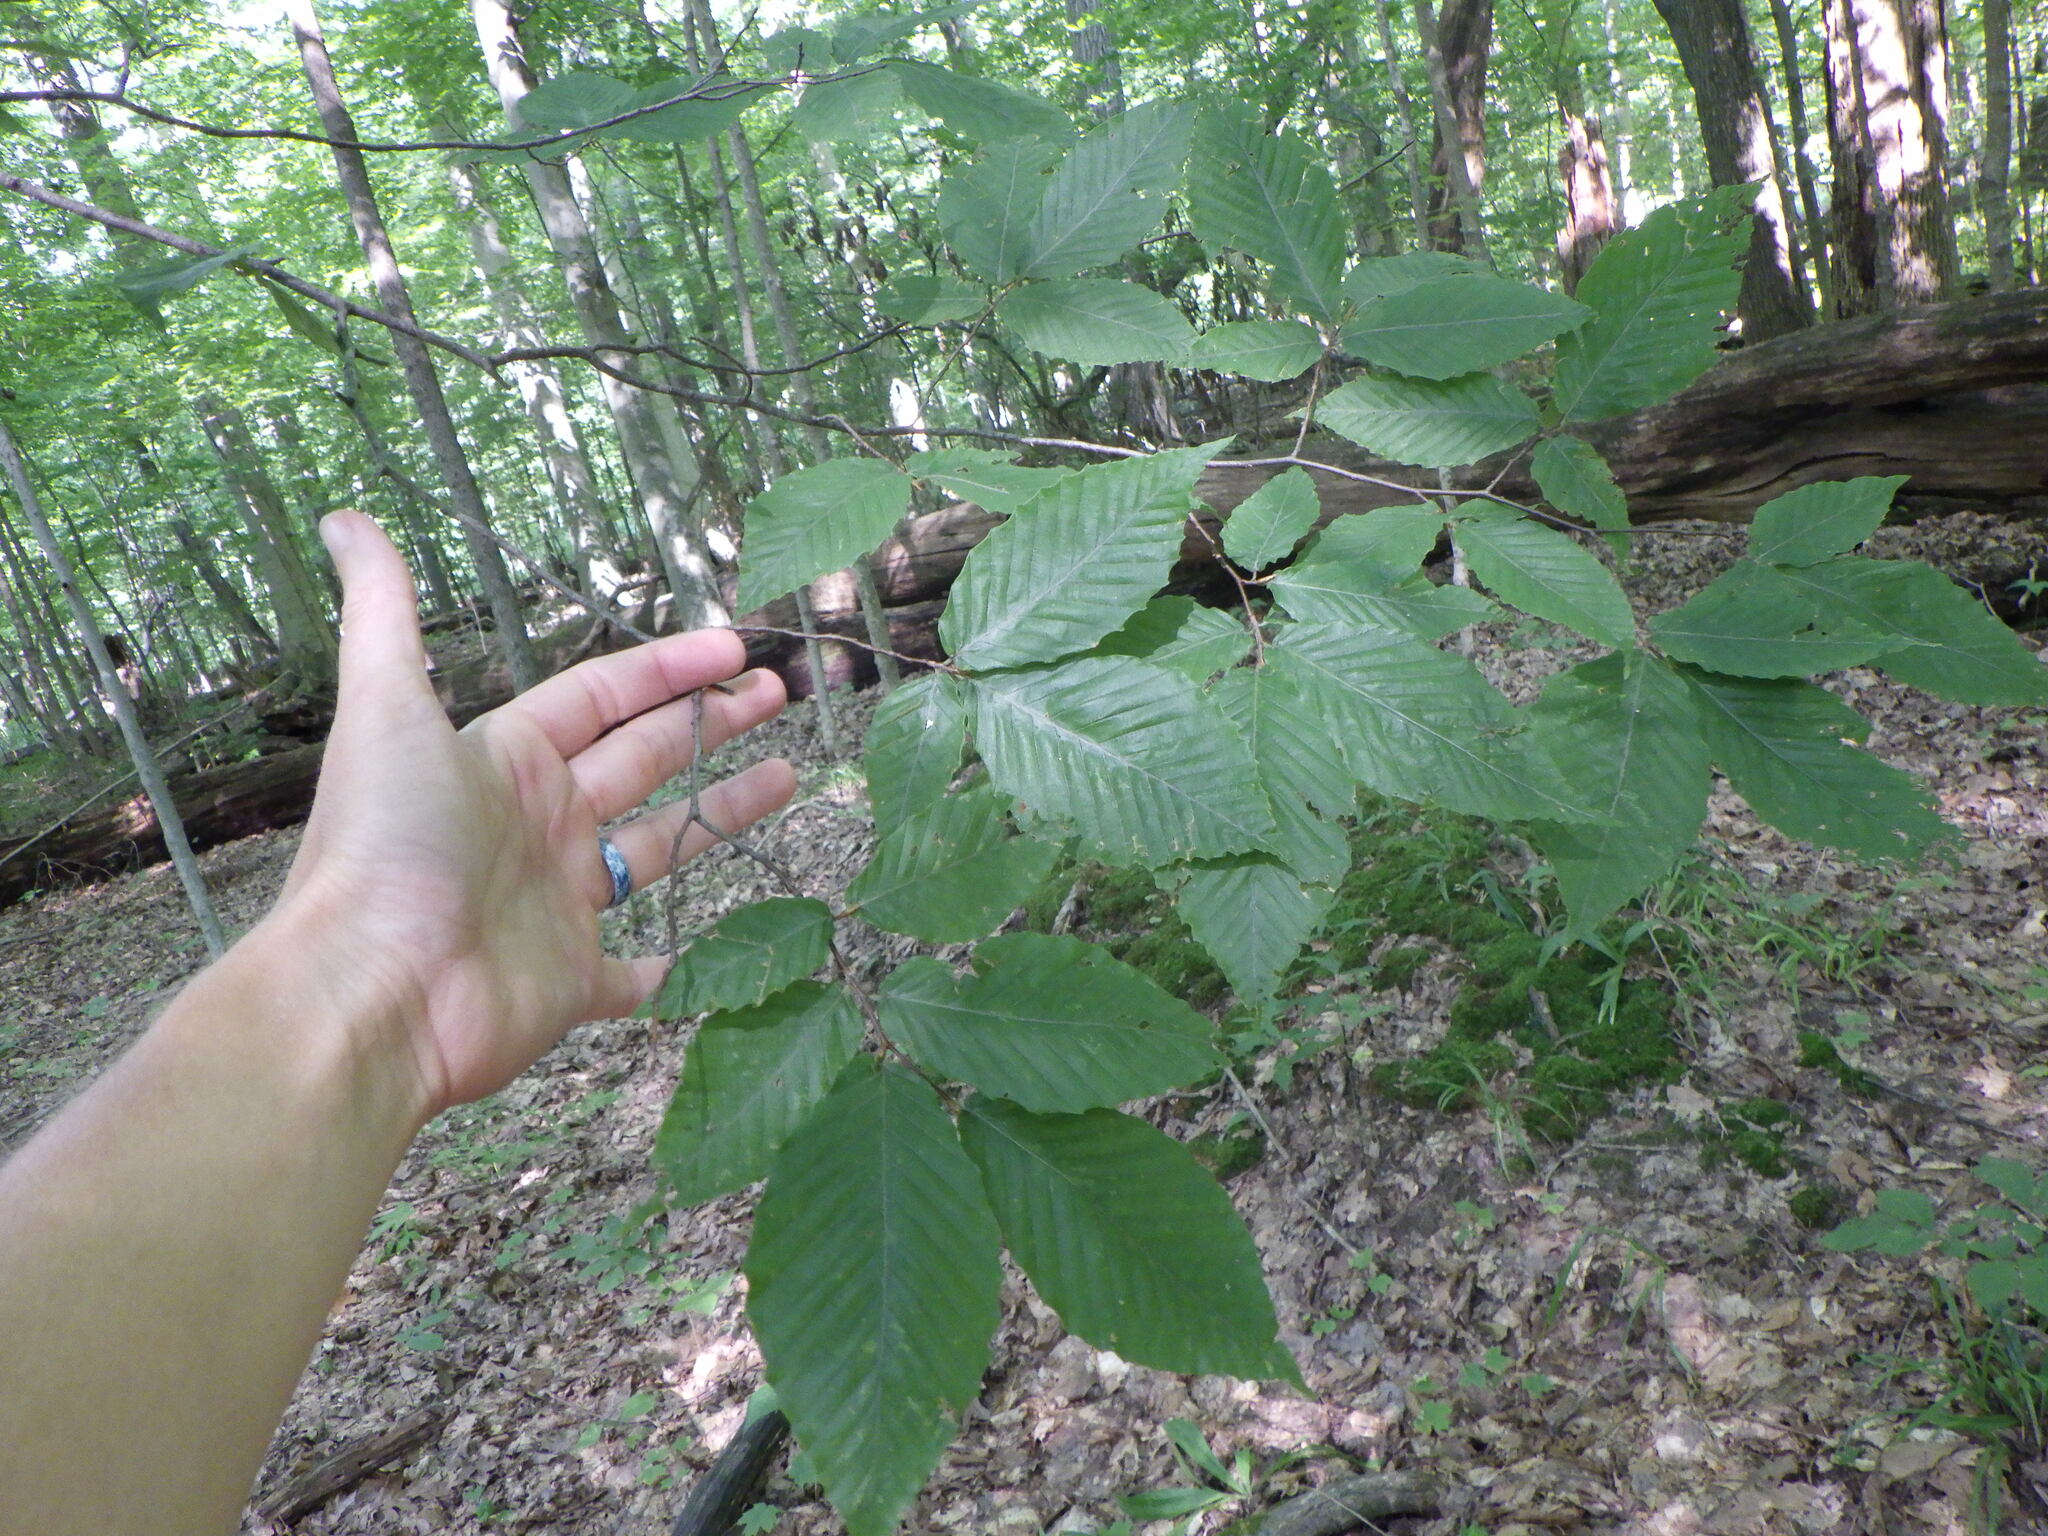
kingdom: Plantae
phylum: Tracheophyta
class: Magnoliopsida
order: Fagales
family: Fagaceae
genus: Fagus
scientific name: Fagus grandifolia
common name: American beech
